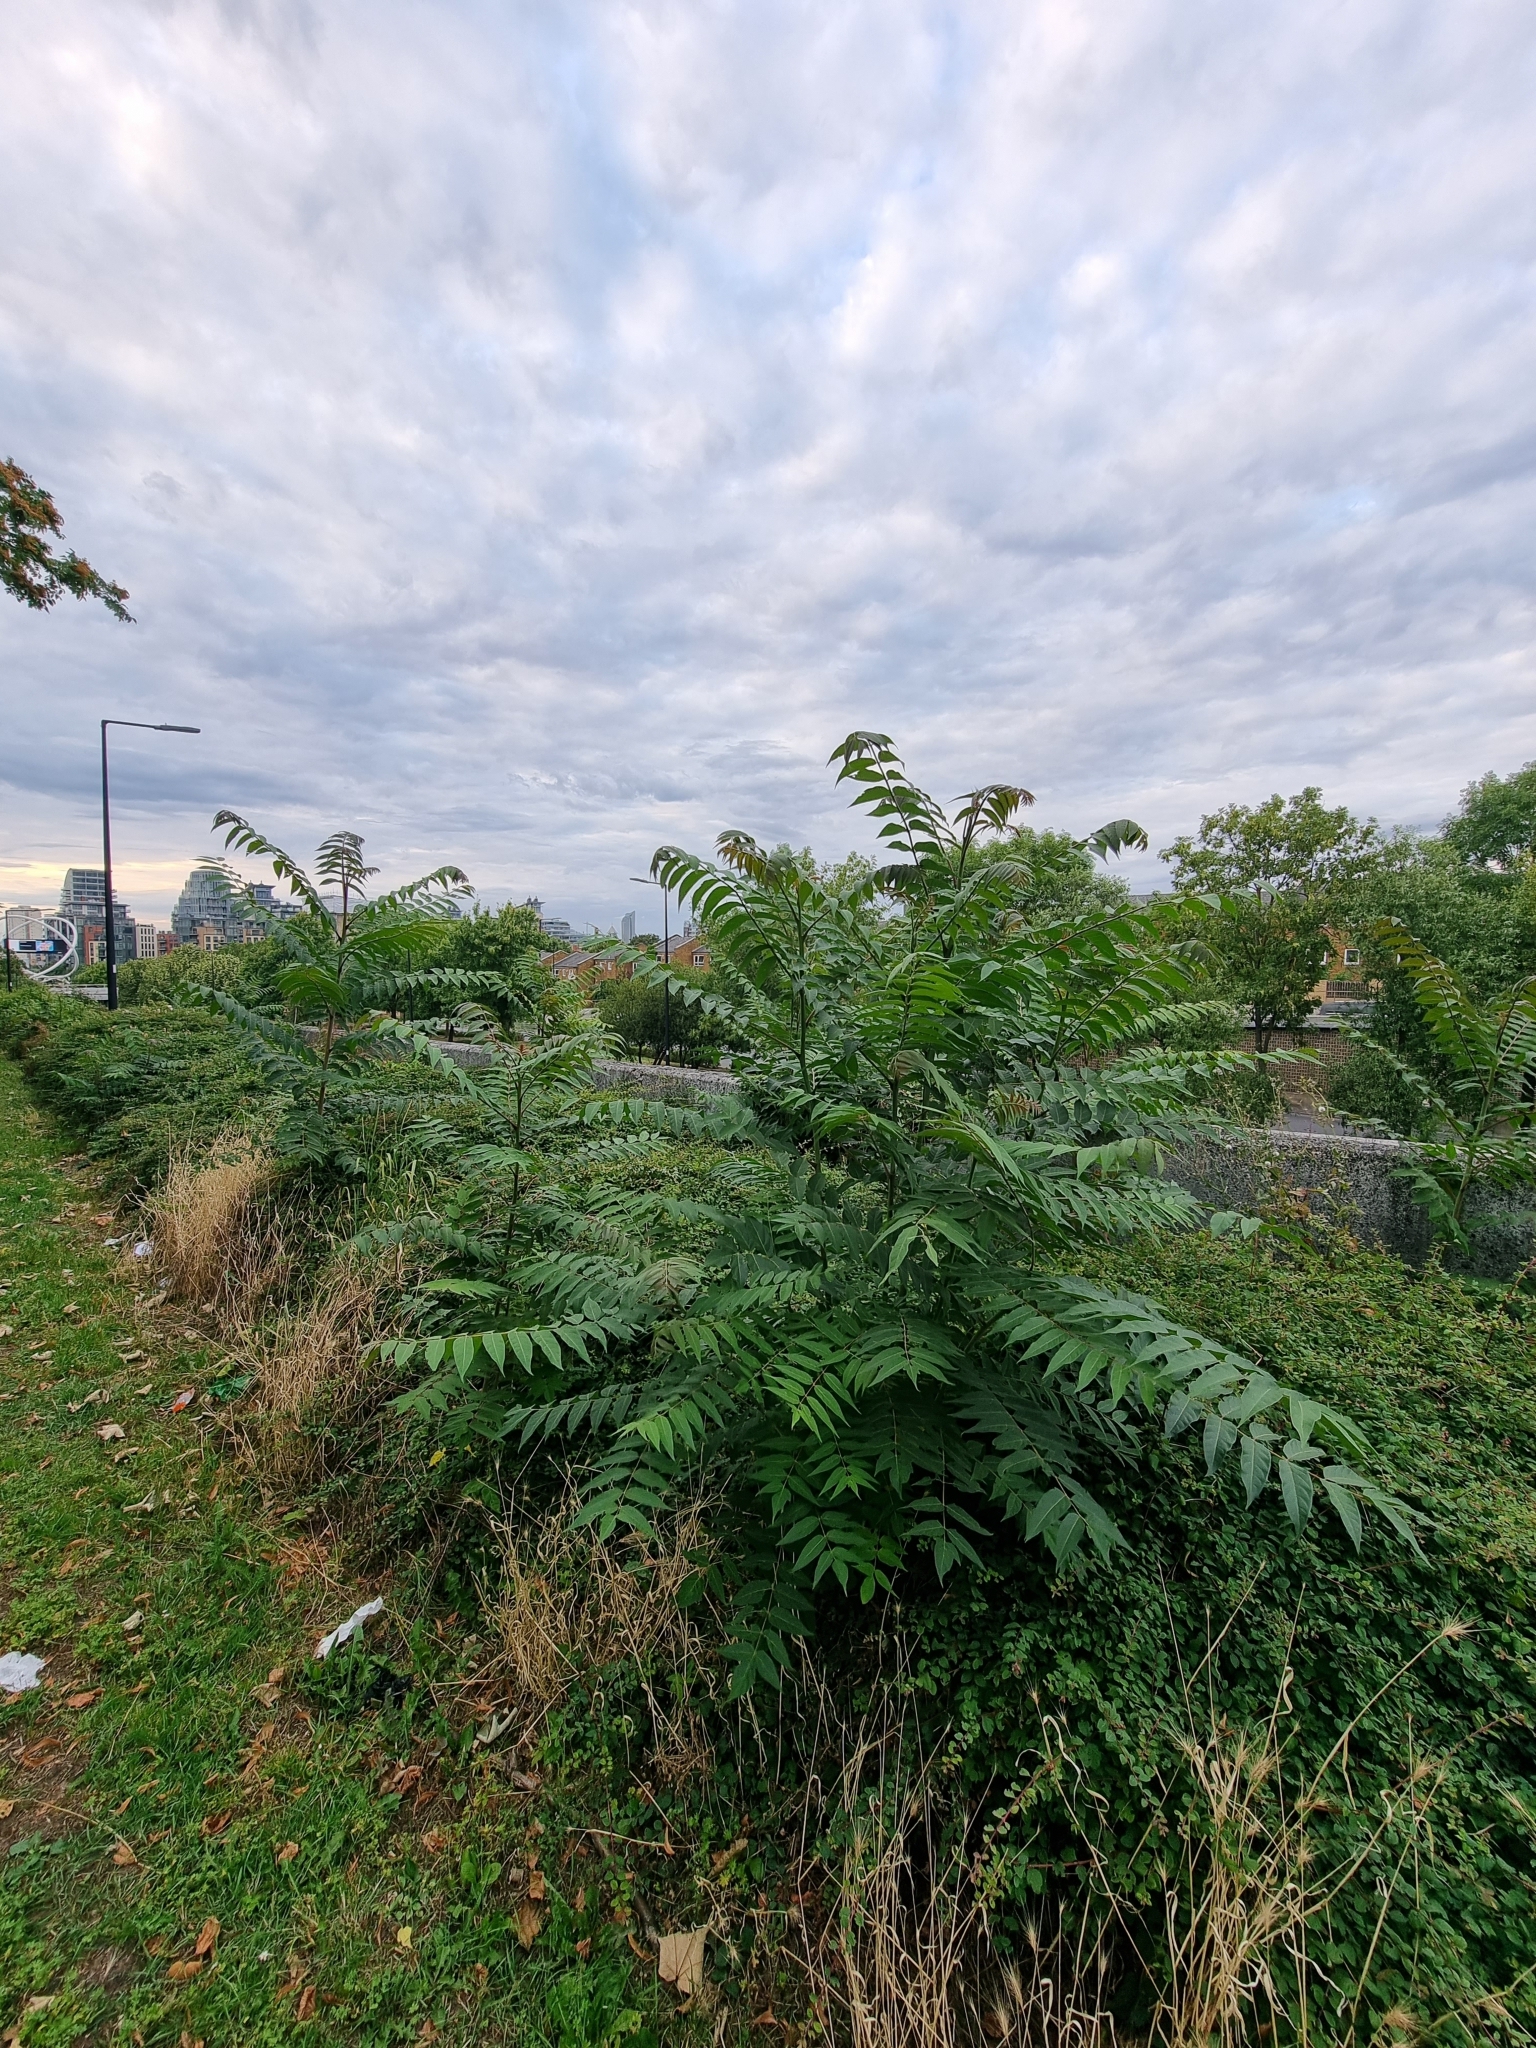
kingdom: Plantae
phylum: Tracheophyta
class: Magnoliopsida
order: Sapindales
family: Simaroubaceae
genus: Ailanthus
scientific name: Ailanthus altissima
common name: Tree-of-heaven
